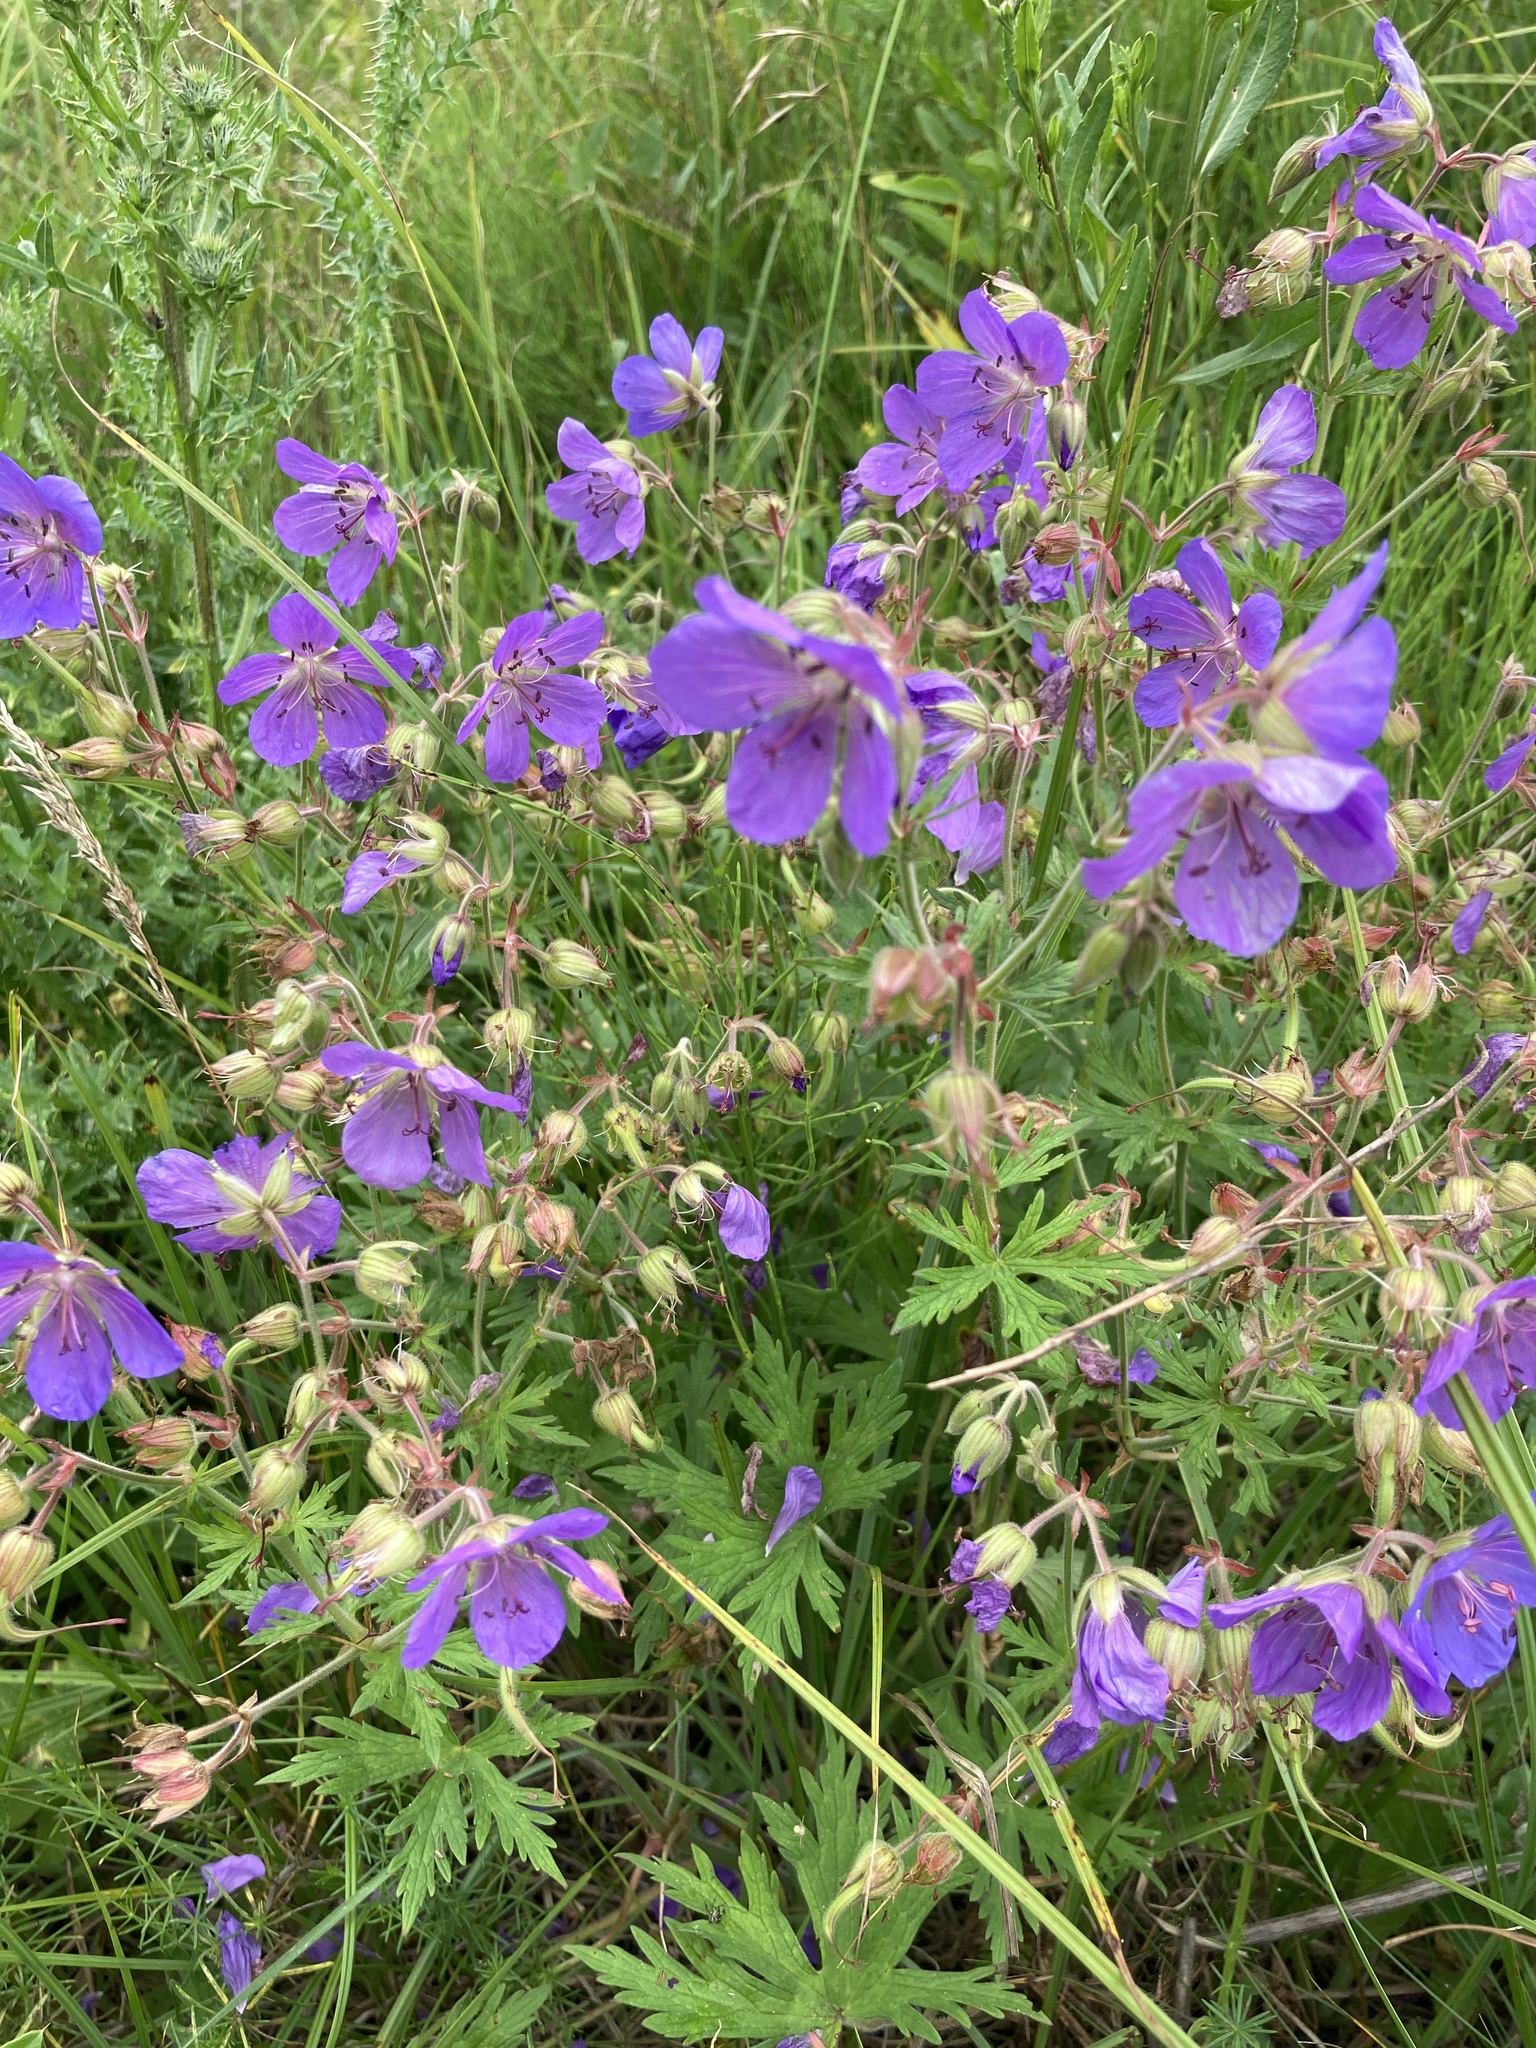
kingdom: Plantae
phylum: Tracheophyta
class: Magnoliopsida
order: Geraniales
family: Geraniaceae
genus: Geranium
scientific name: Geranium pratense
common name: Meadow crane's-bill
